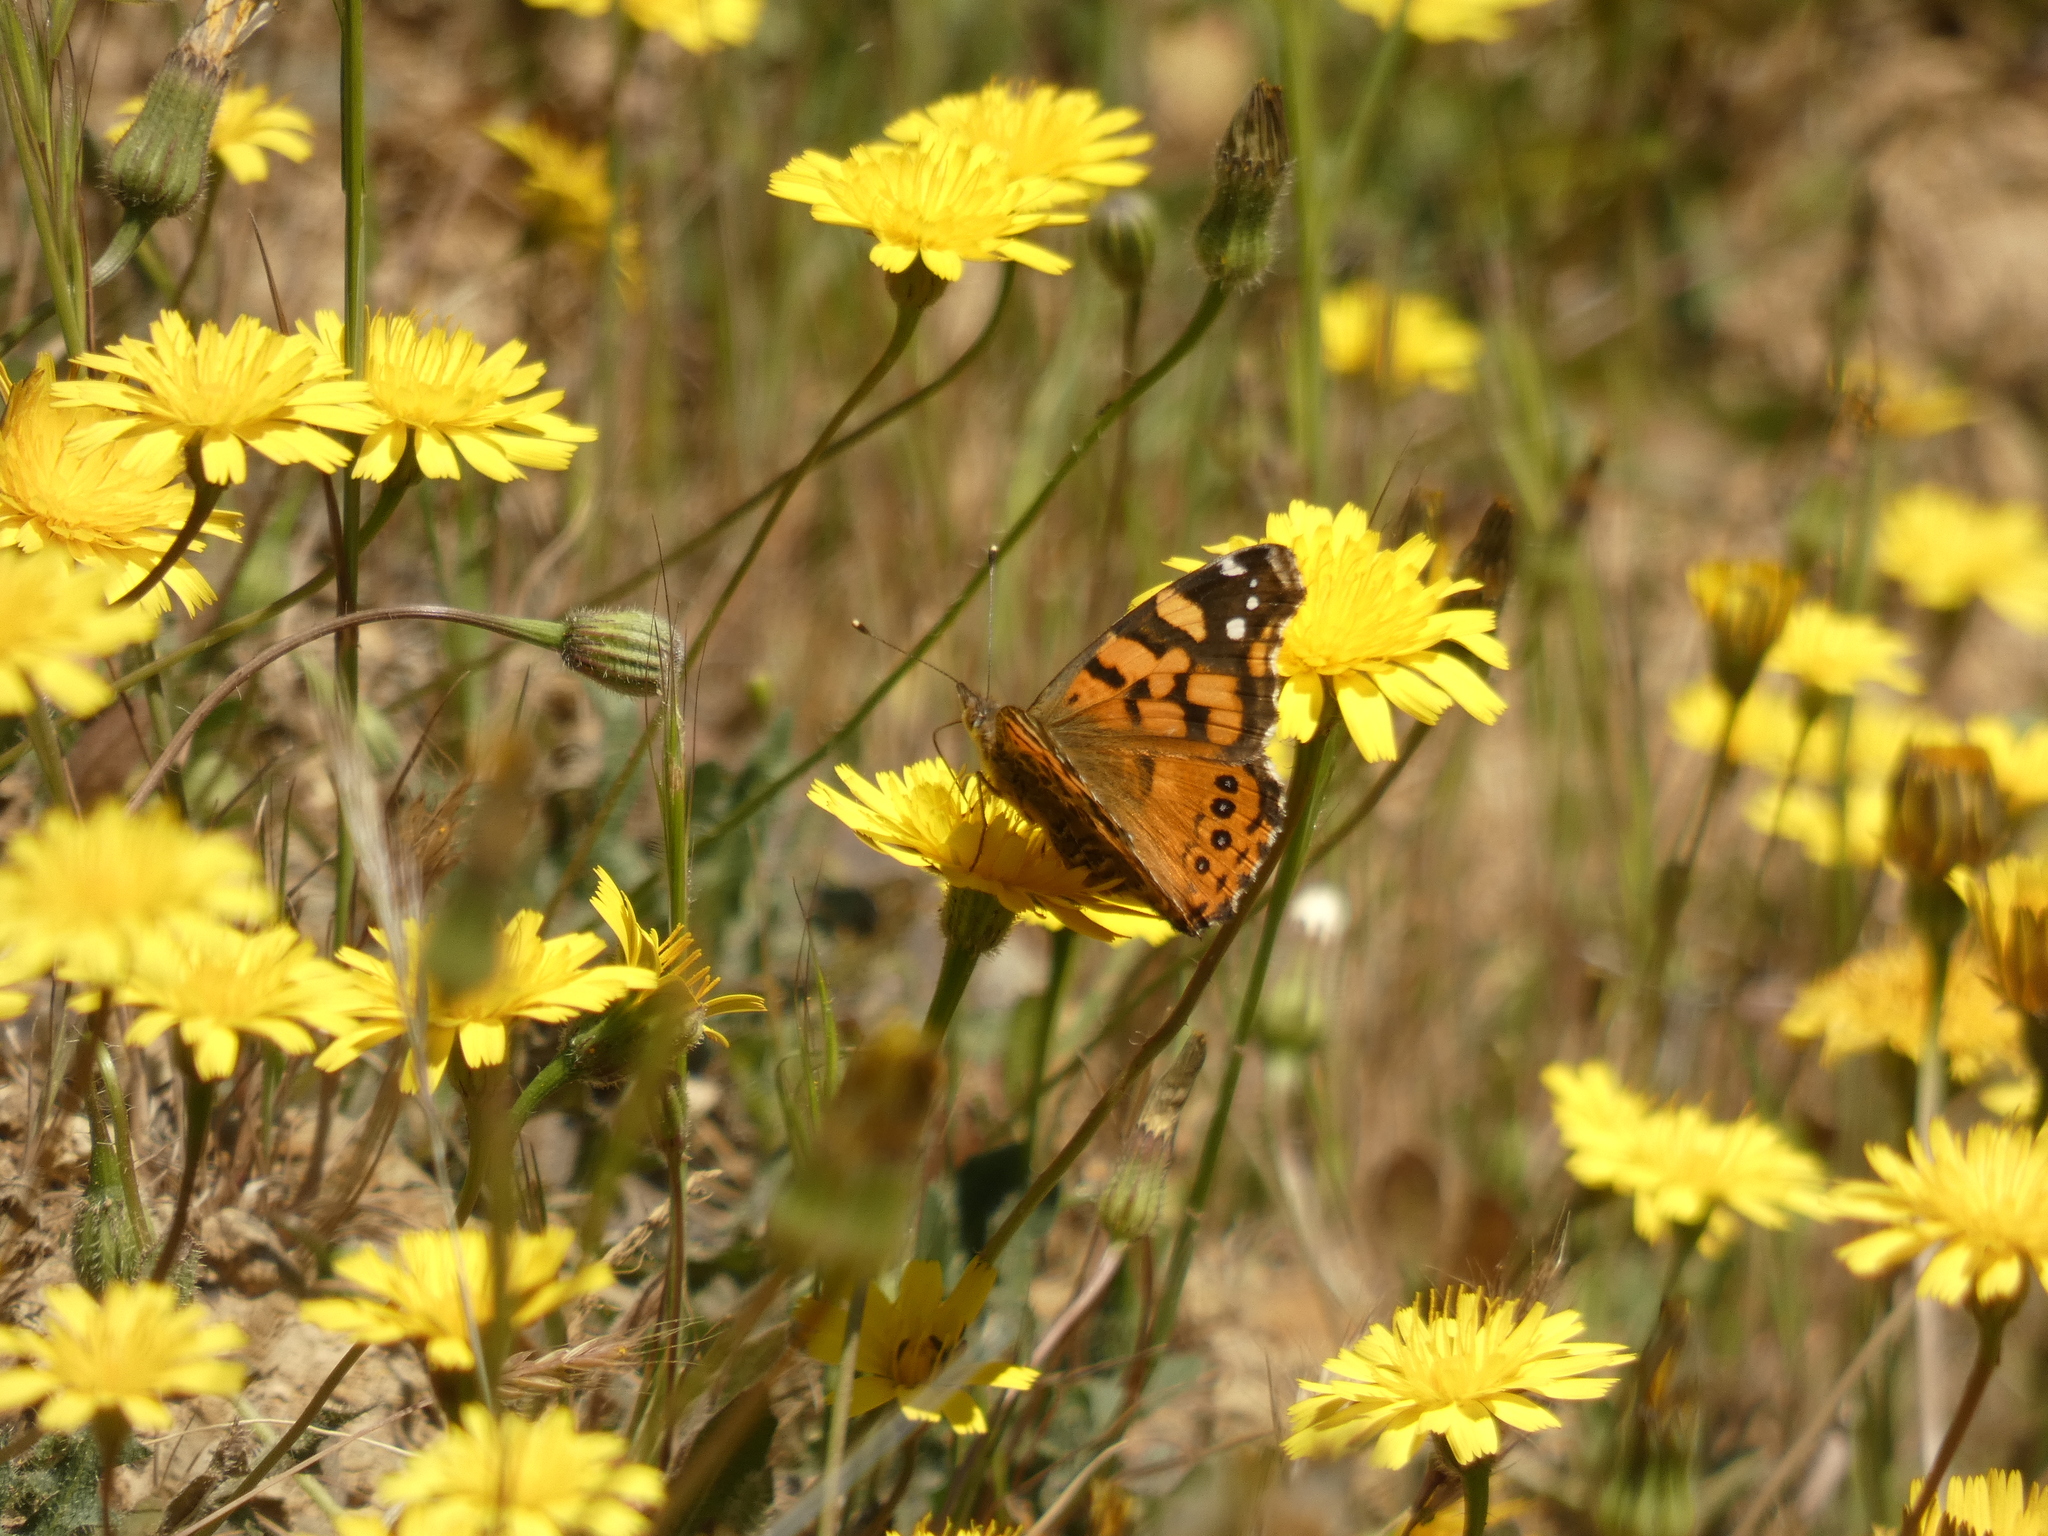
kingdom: Animalia
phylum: Arthropoda
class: Insecta
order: Lepidoptera
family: Nymphalidae
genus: Vanessa
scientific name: Vanessa carye
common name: Subtropical lady
